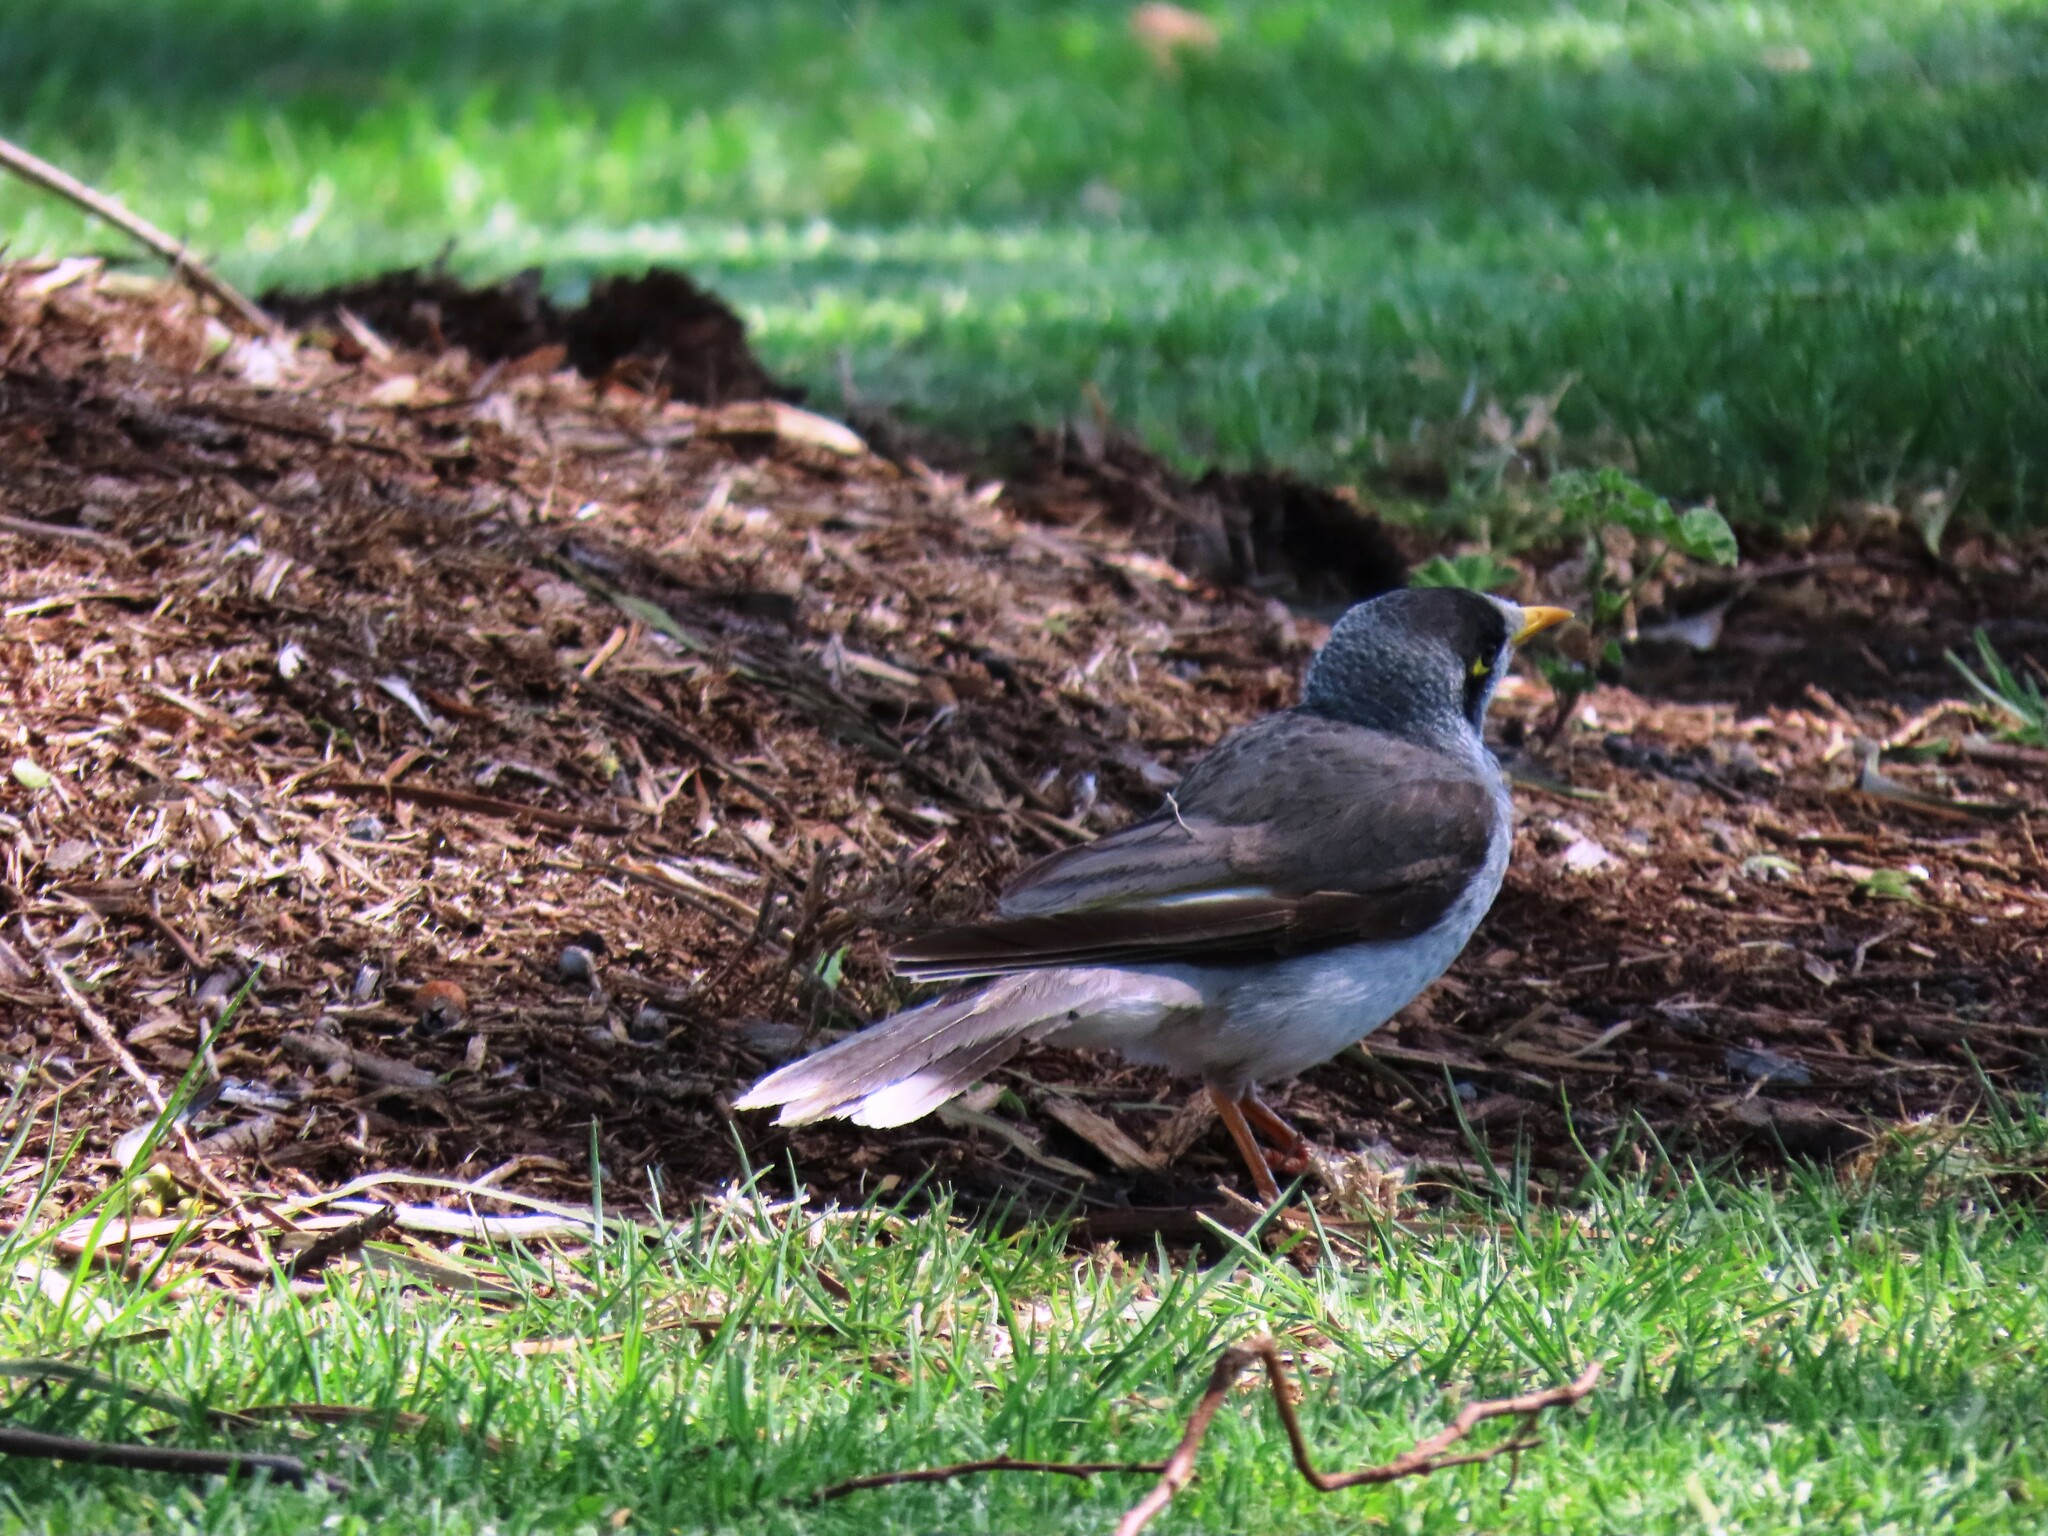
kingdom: Animalia
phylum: Chordata
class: Aves
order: Passeriformes
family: Meliphagidae
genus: Manorina
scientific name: Manorina melanocephala
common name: Noisy miner
